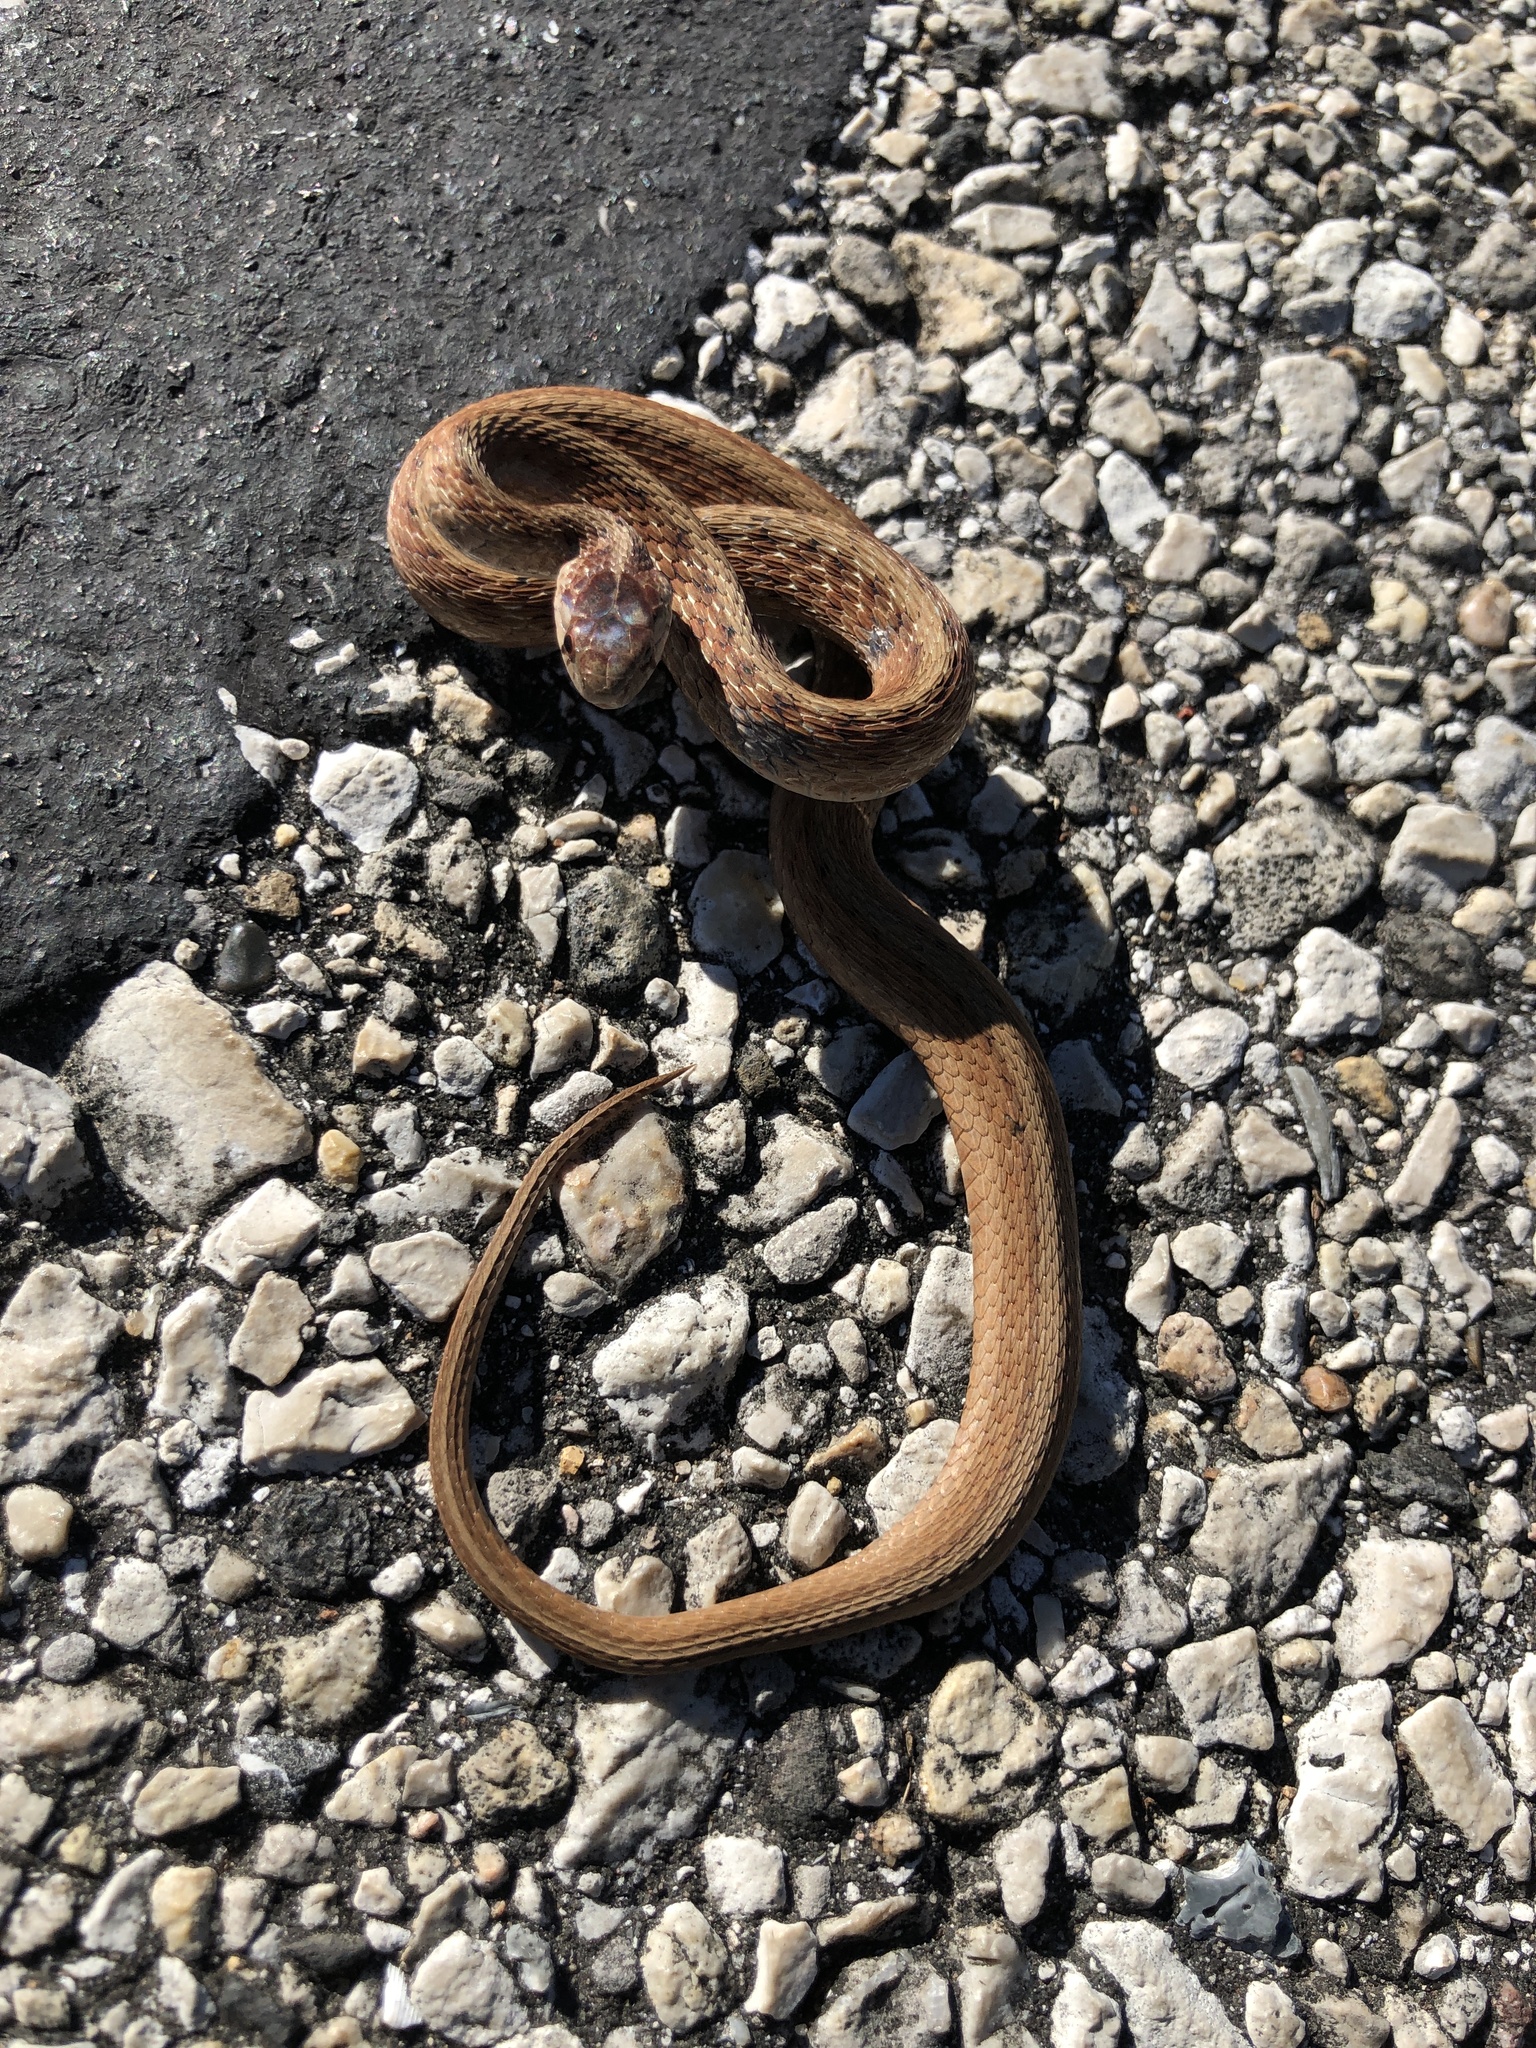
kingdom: Animalia
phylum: Chordata
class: Squamata
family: Colubridae
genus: Storeria
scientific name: Storeria dekayi
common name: (dekay’s) brown snake
